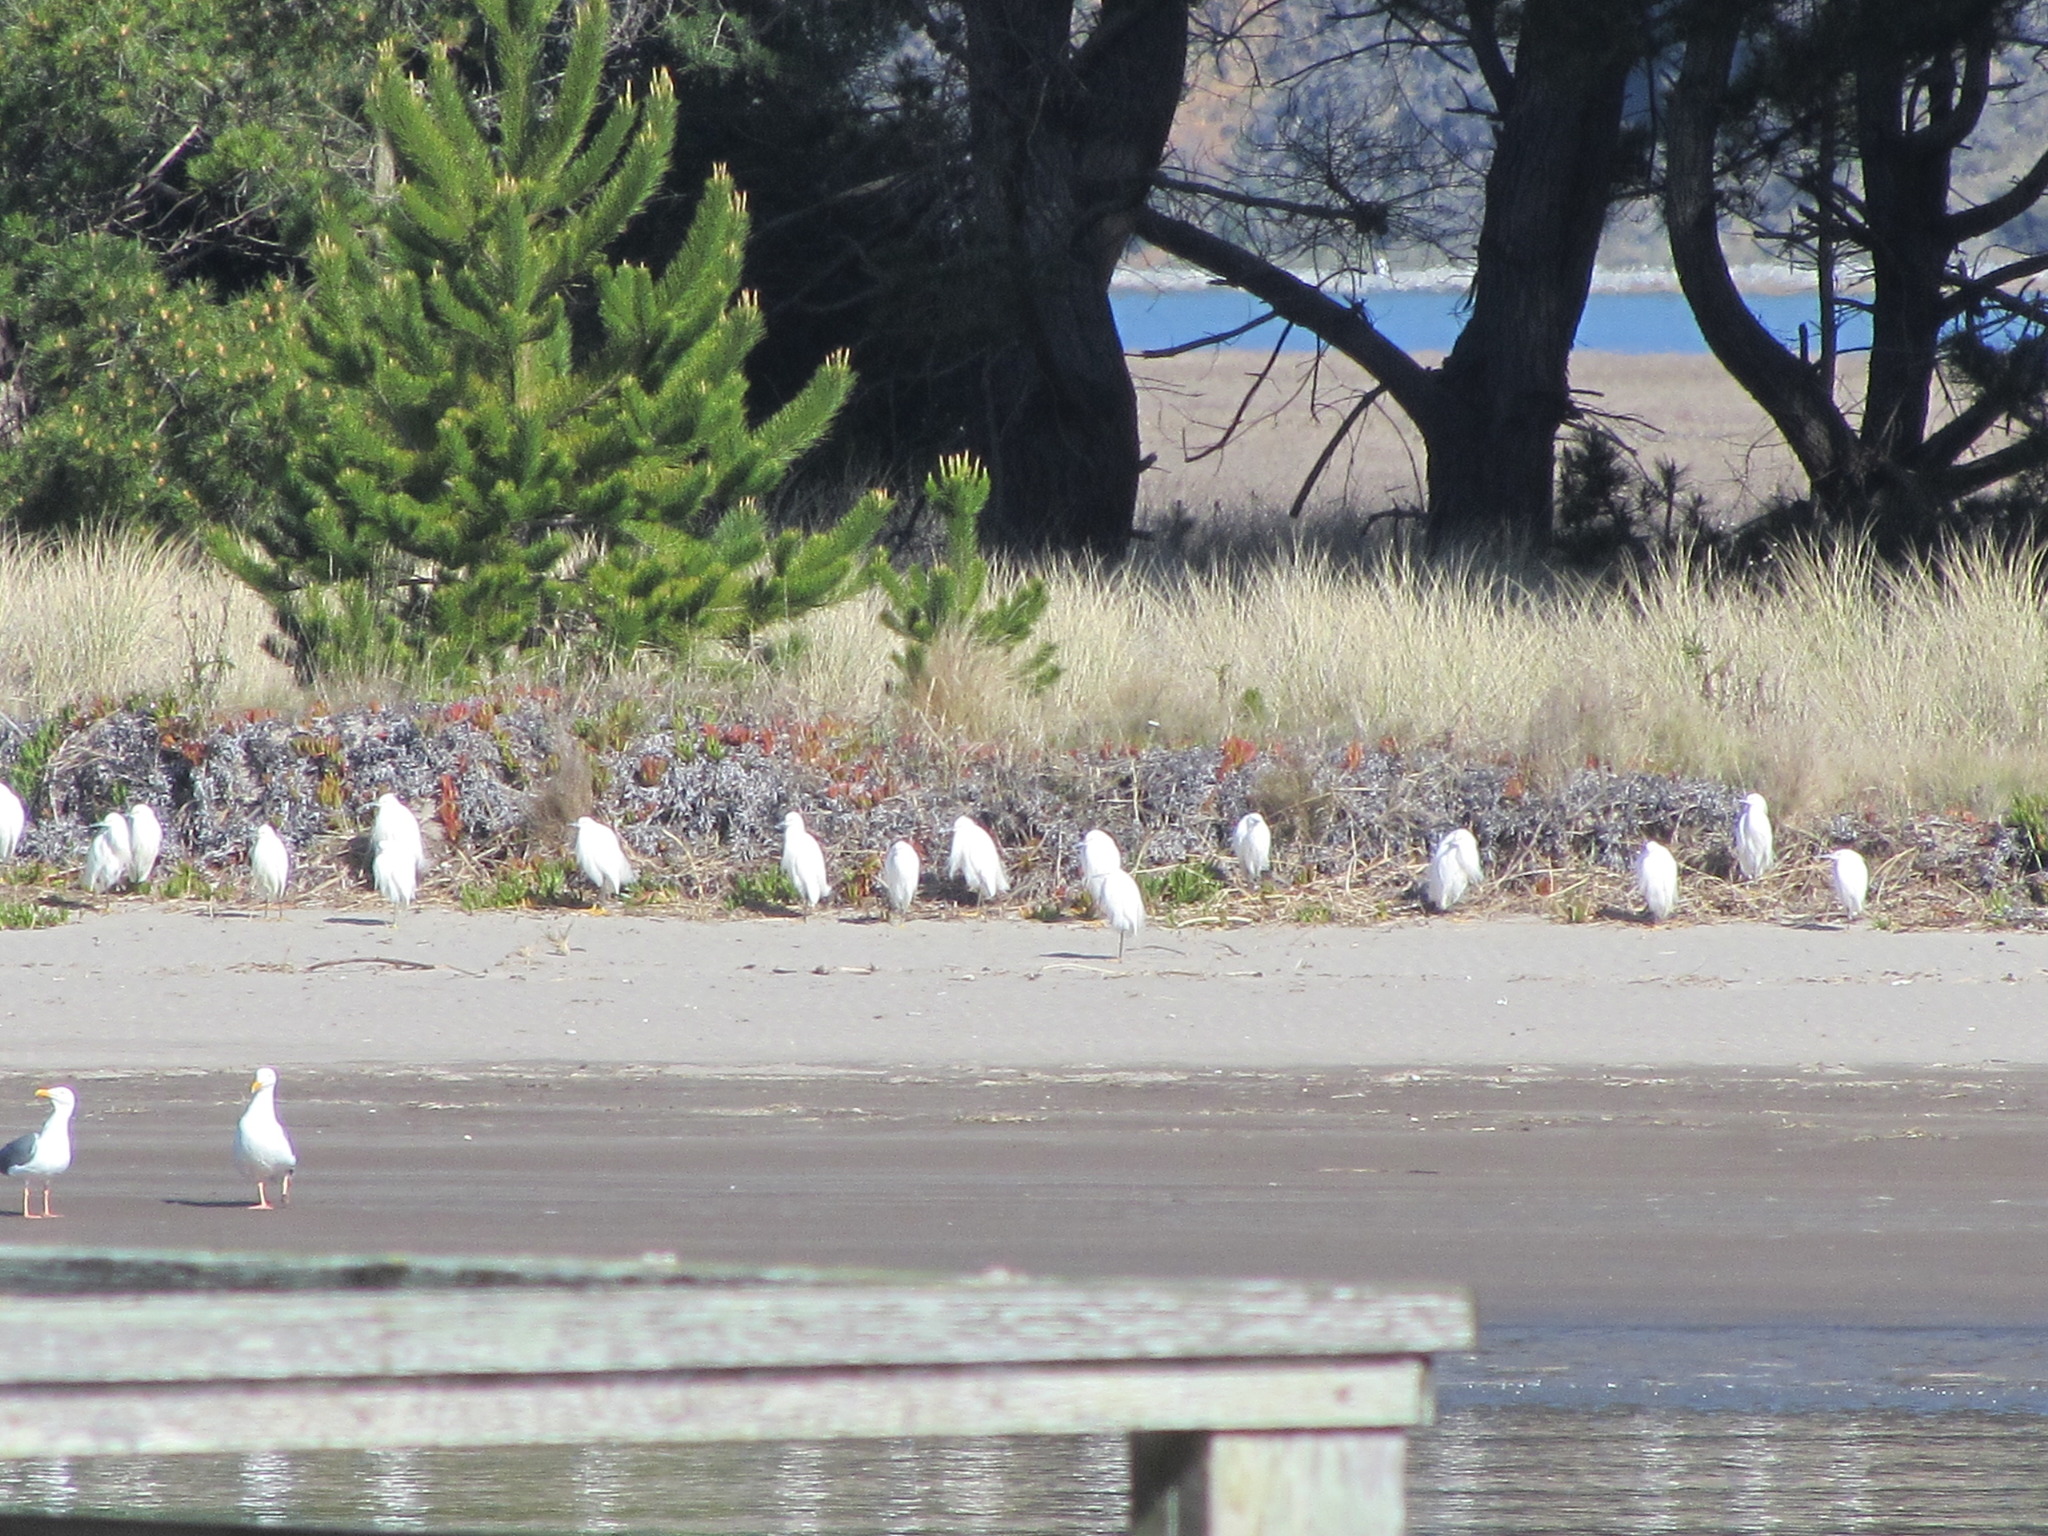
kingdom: Animalia
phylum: Chordata
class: Aves
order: Pelecaniformes
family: Ardeidae
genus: Egretta
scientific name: Egretta thula
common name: Snowy egret
